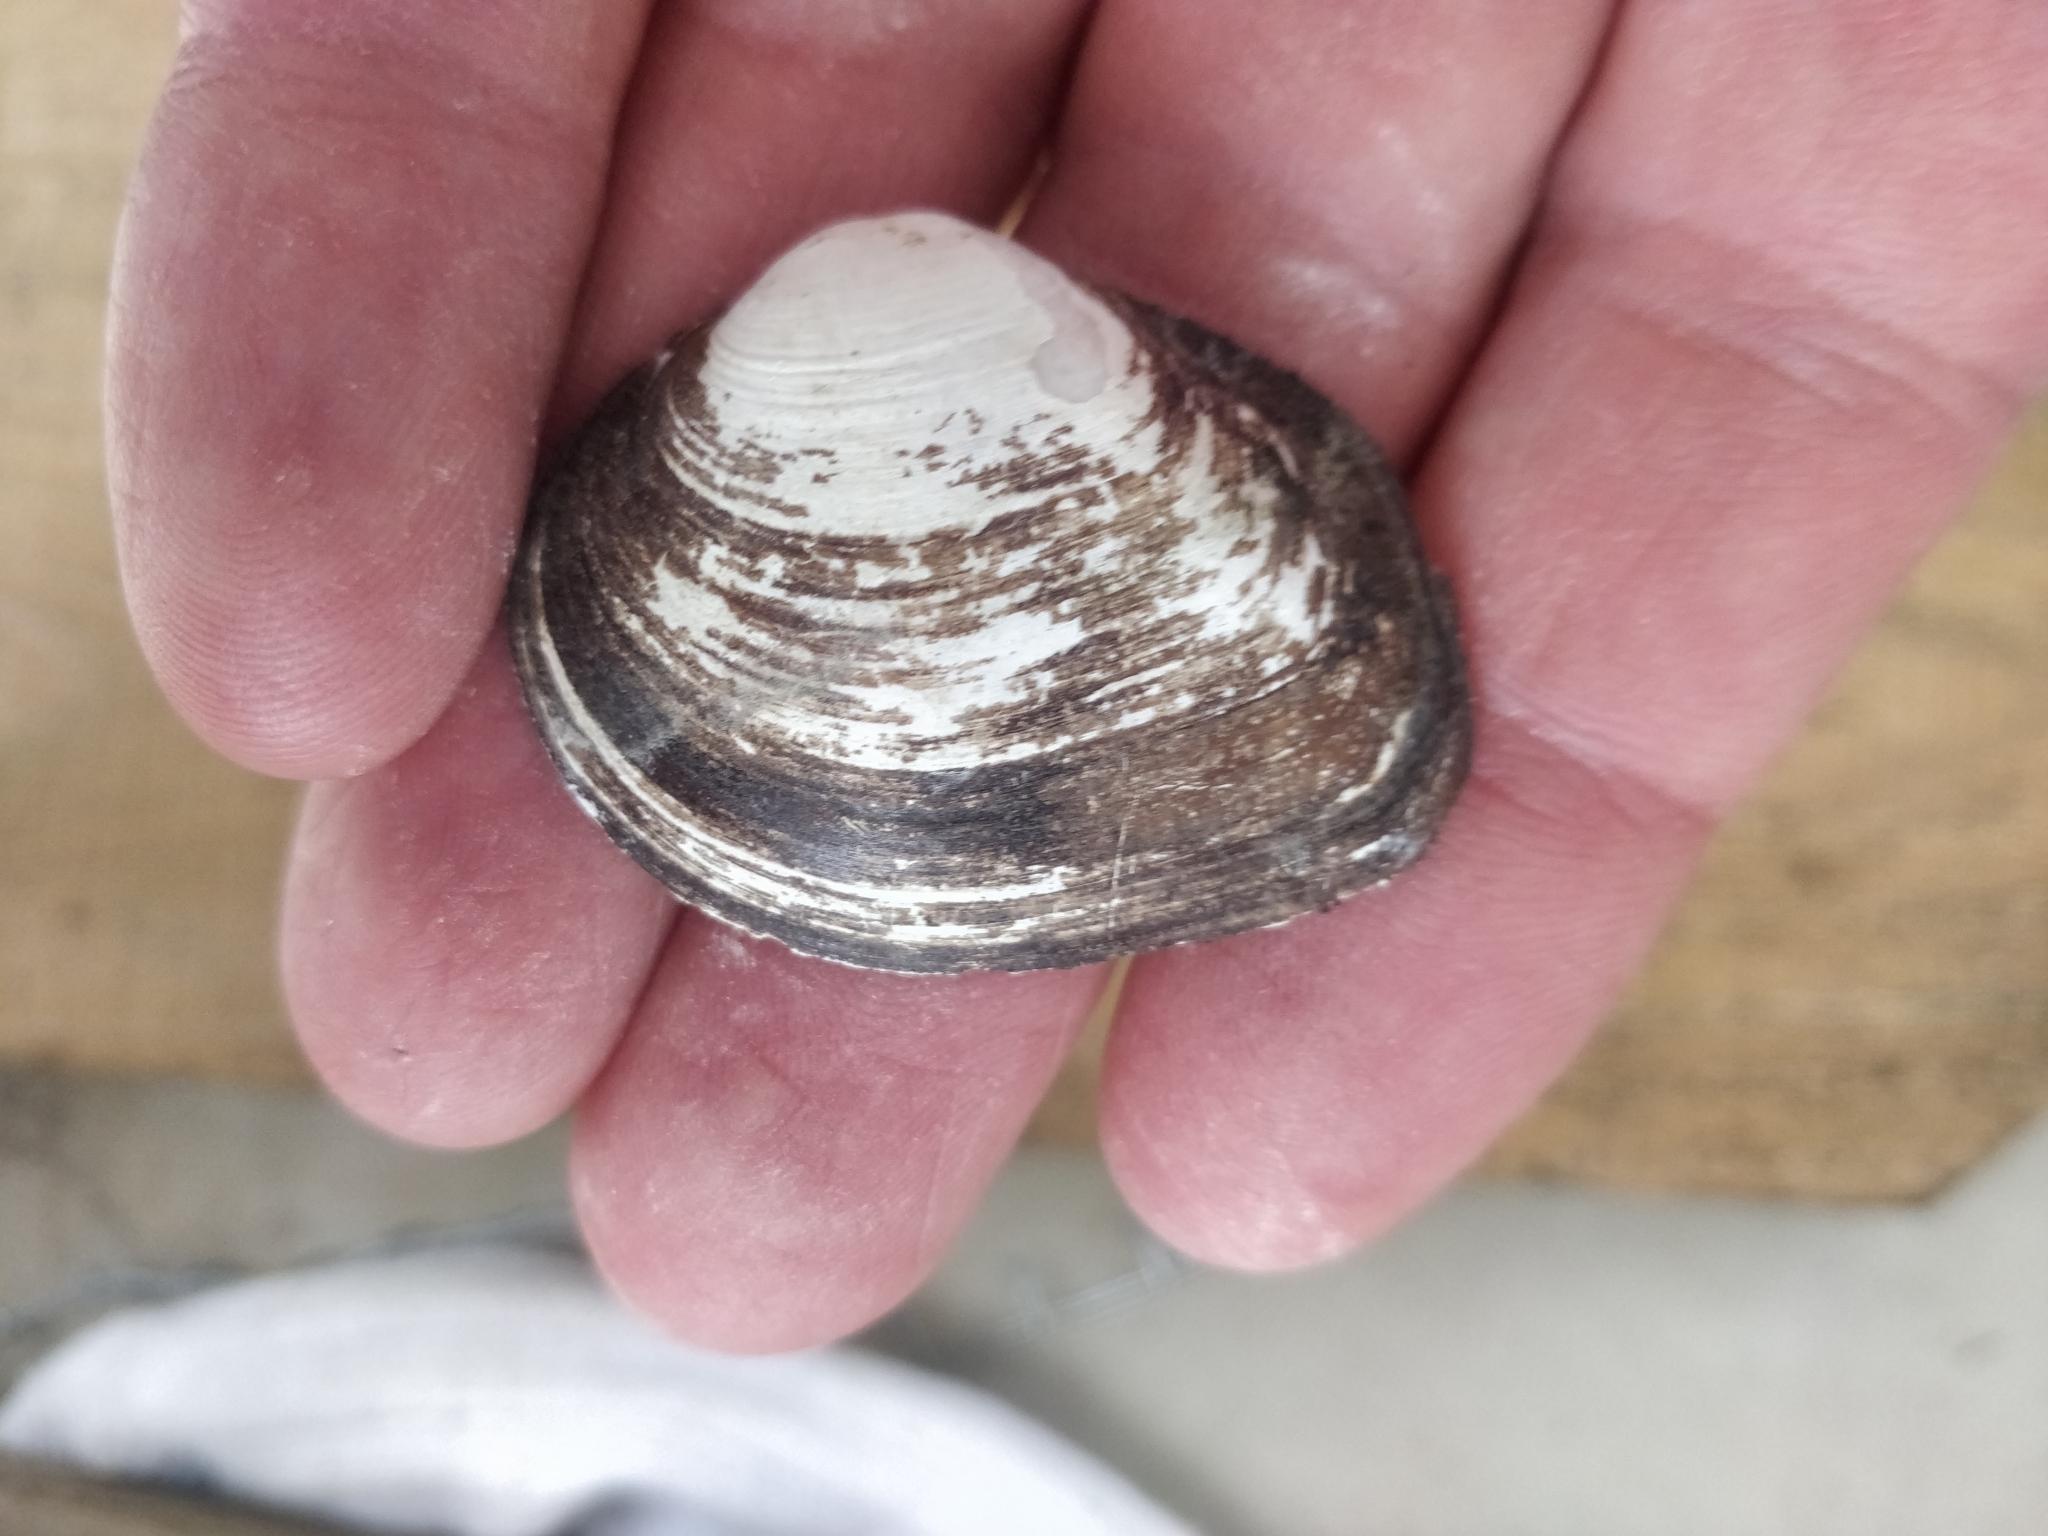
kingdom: Animalia
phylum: Mollusca
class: Bivalvia
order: Unionida
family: Unionidae
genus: Fusconaia
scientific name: Fusconaia flava
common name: Wabash pigtoe
